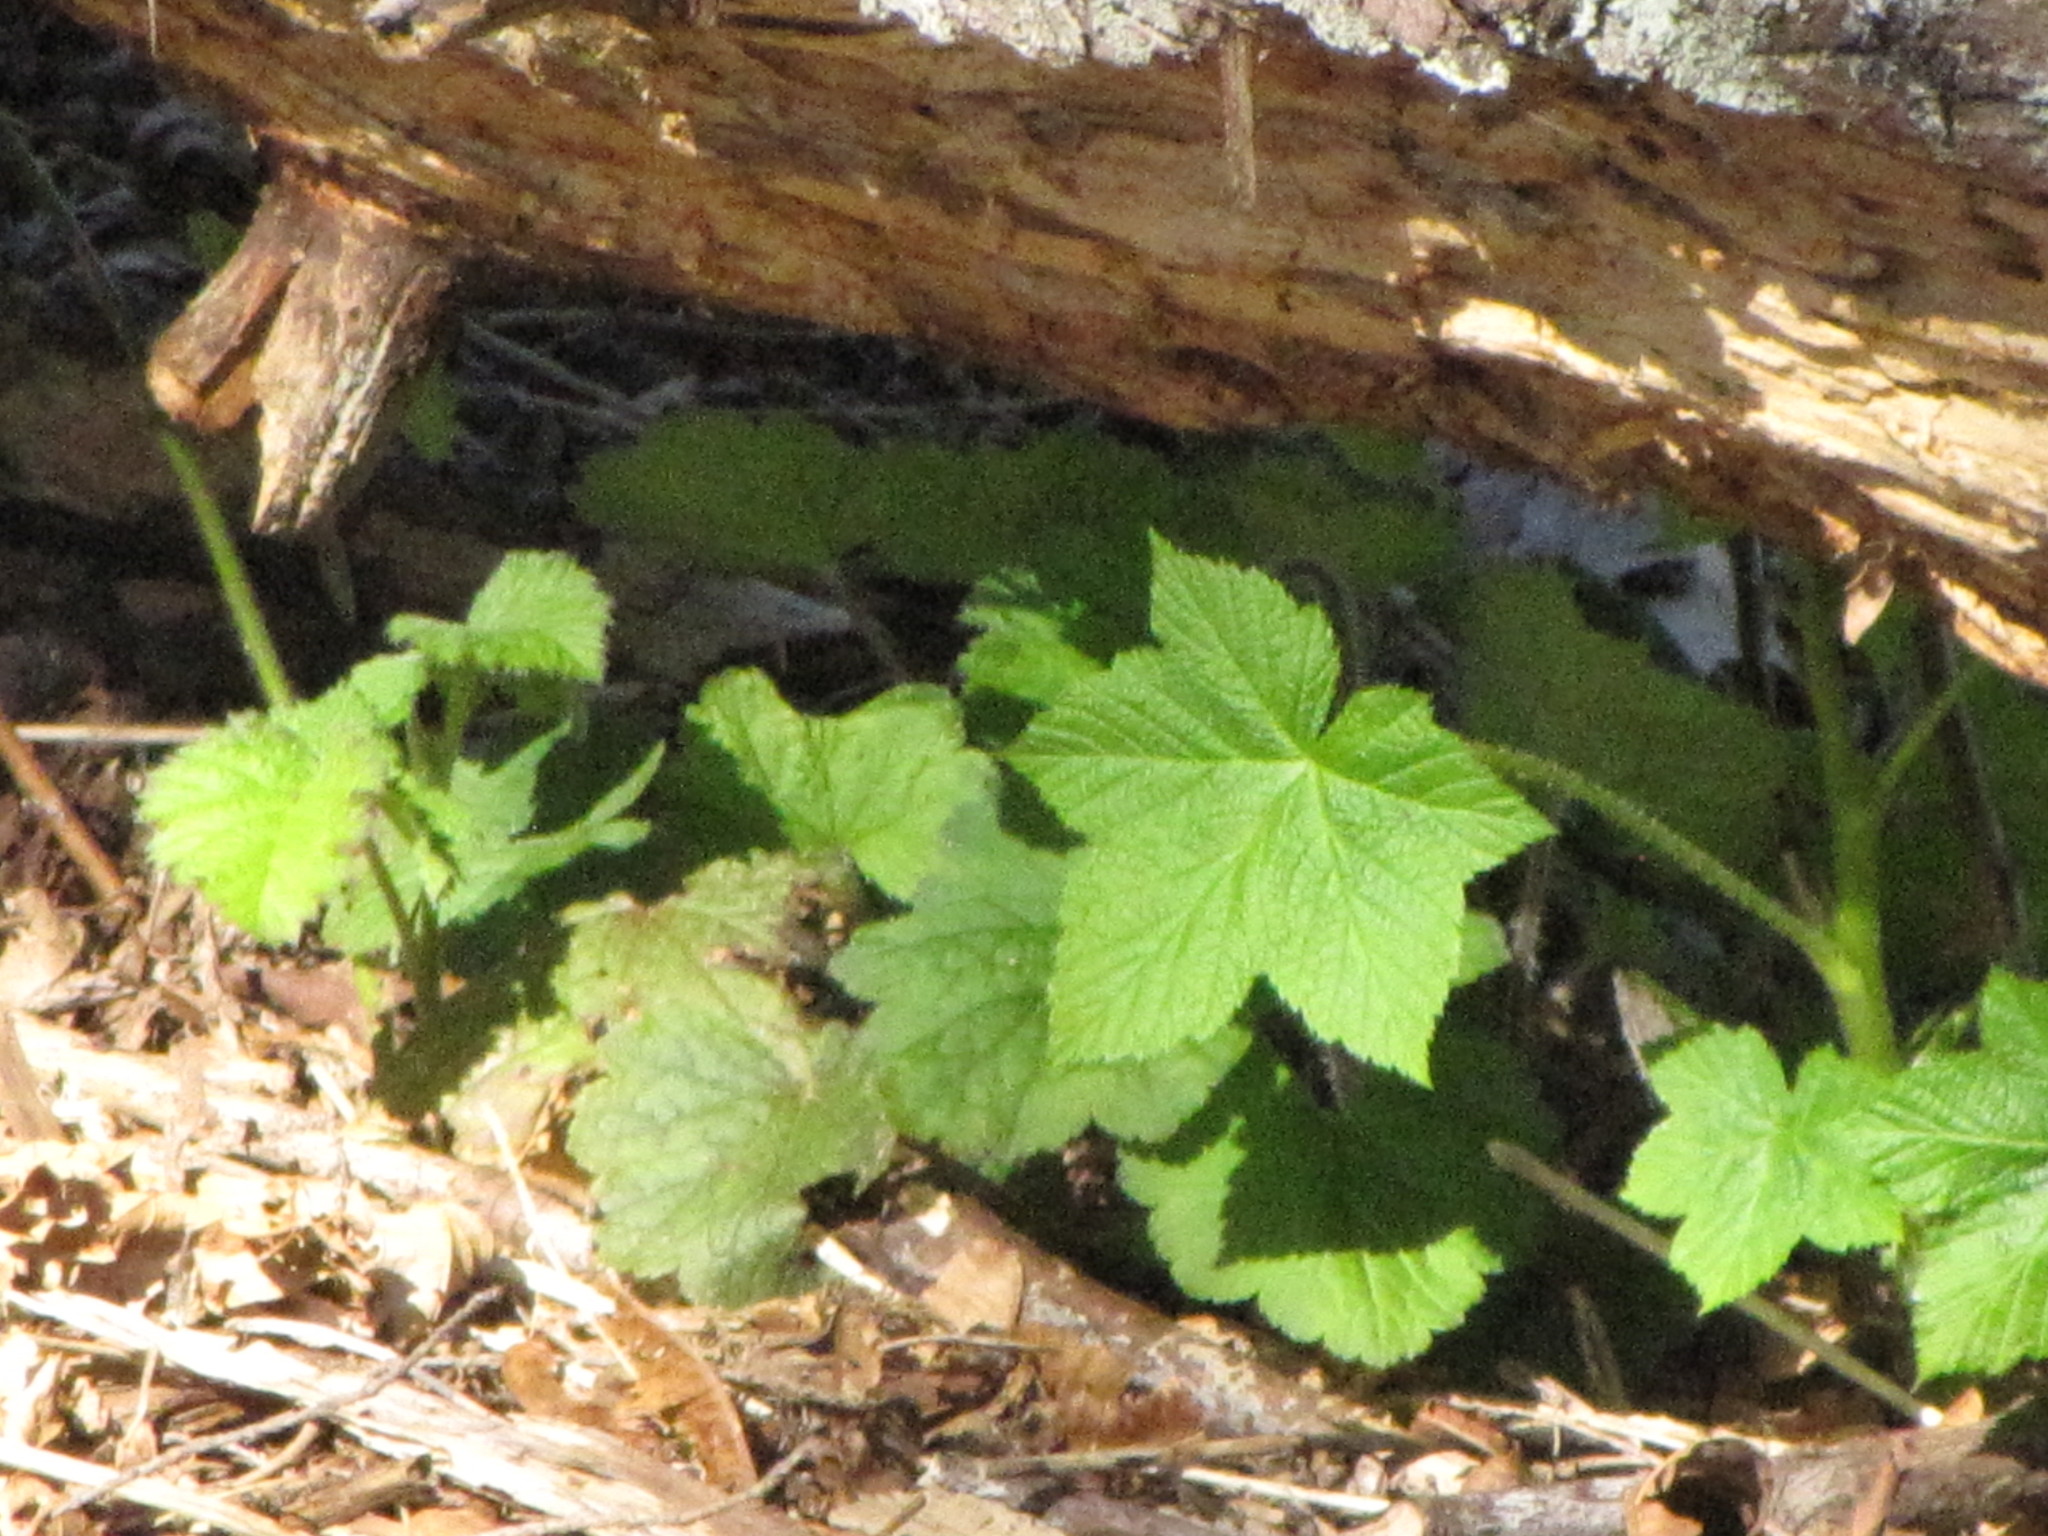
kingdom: Plantae
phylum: Tracheophyta
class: Magnoliopsida
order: Rosales
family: Rosaceae
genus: Rubus
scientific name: Rubus parviflorus
